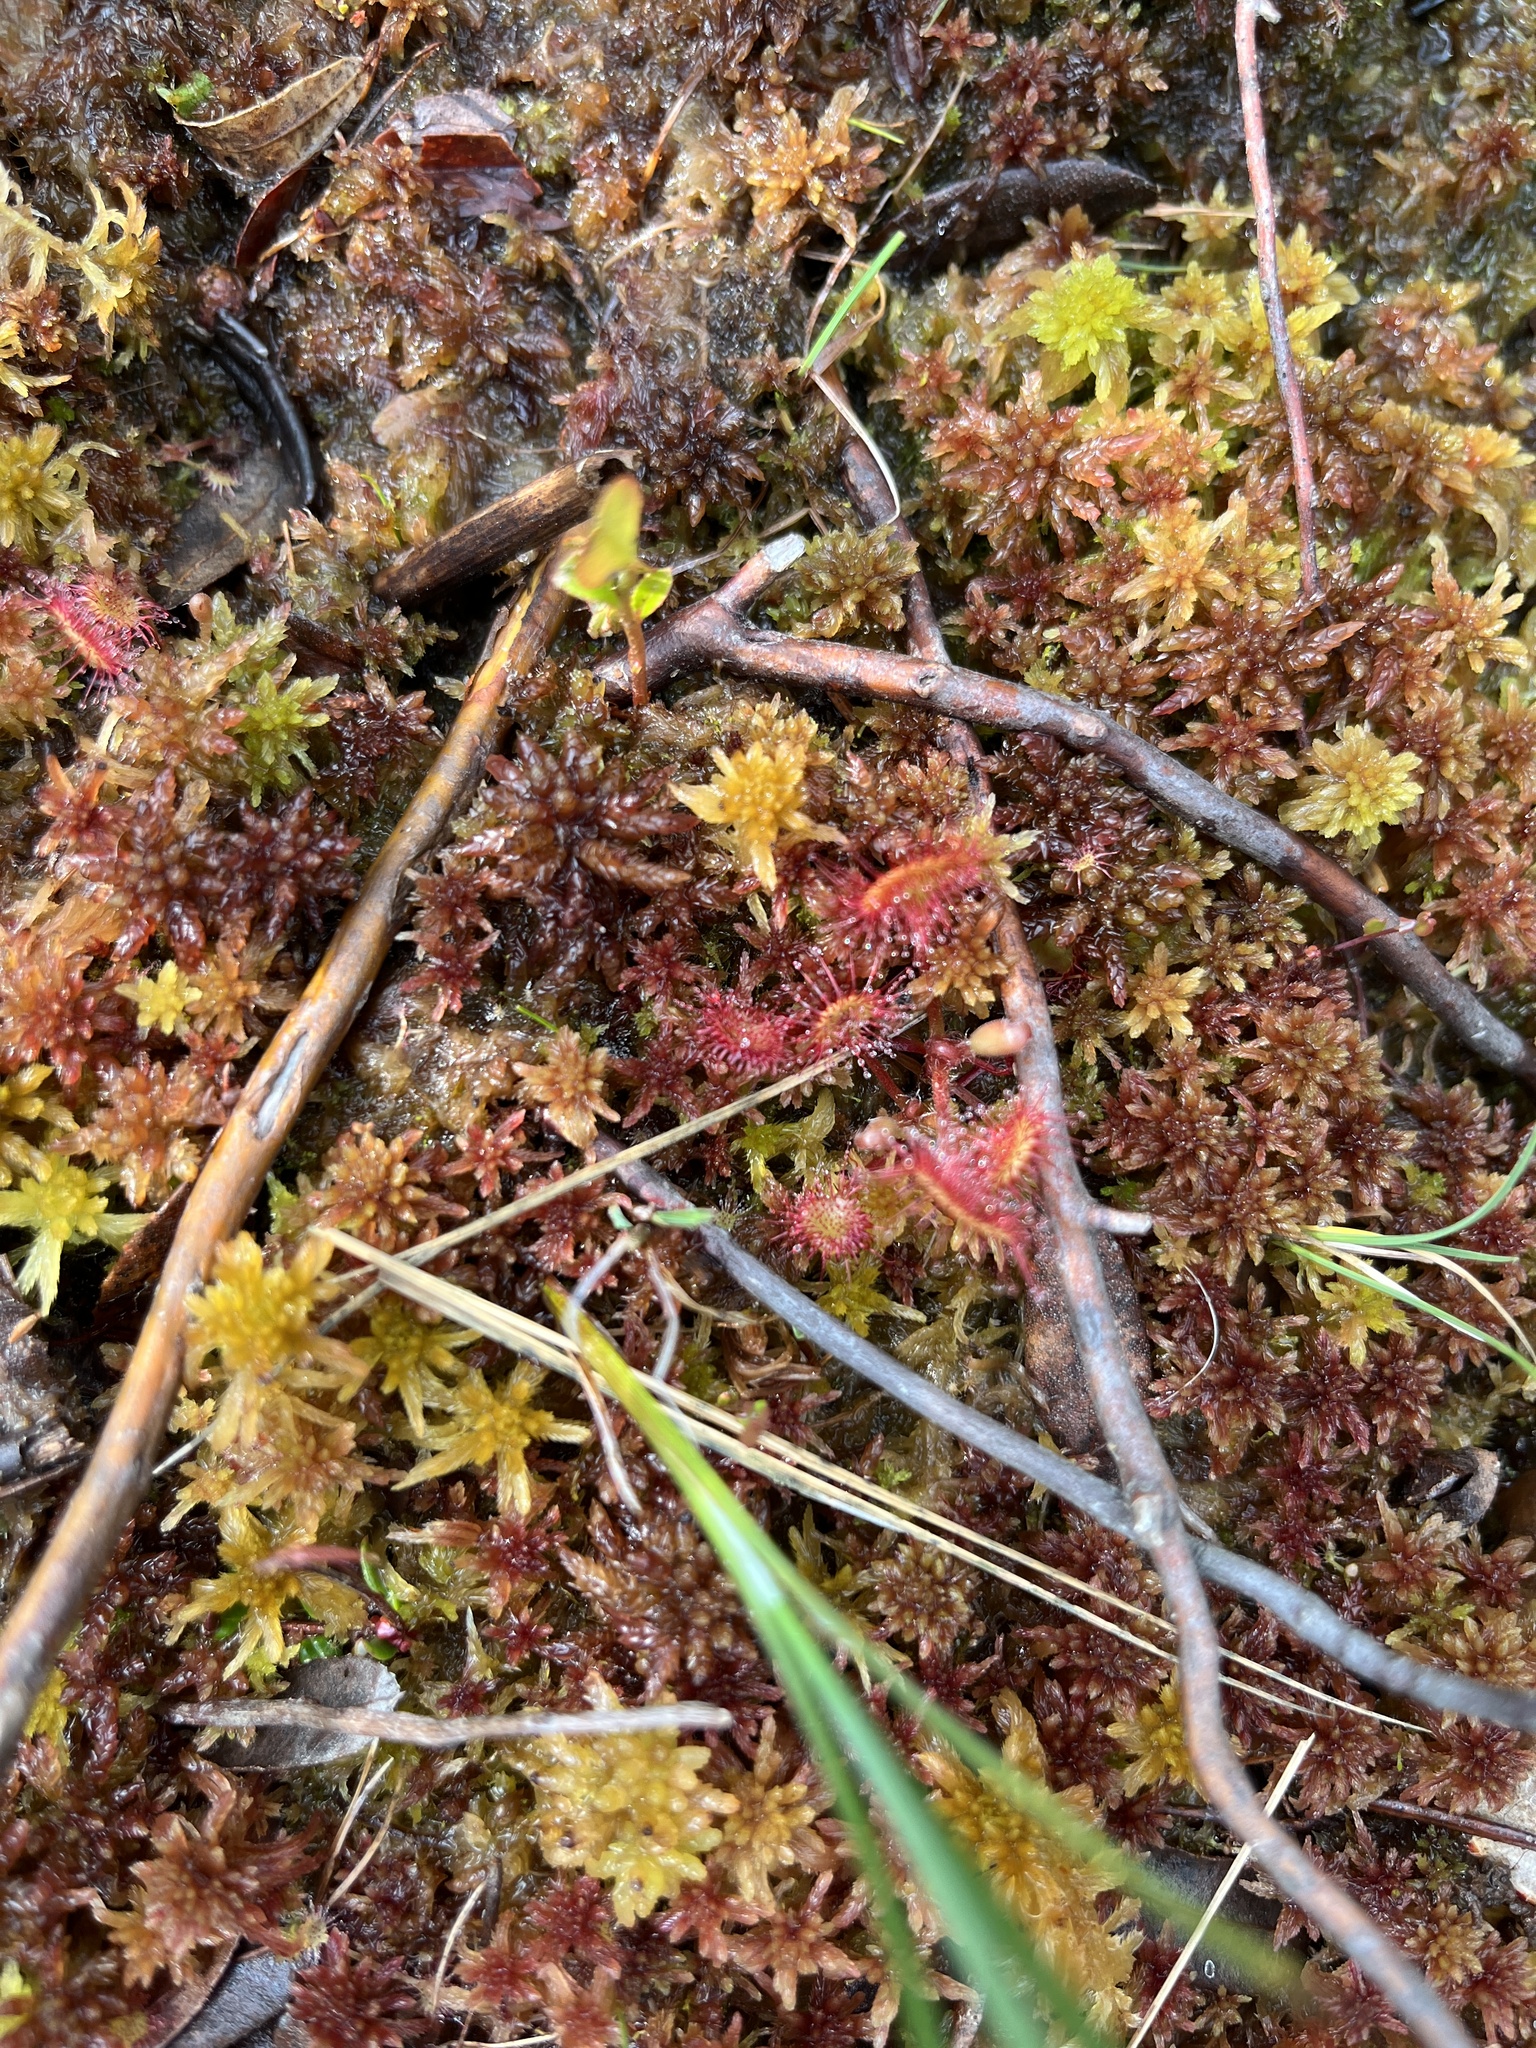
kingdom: Plantae
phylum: Tracheophyta
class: Magnoliopsida
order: Caryophyllales
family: Droseraceae
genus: Drosera
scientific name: Drosera rotundifolia
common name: Round-leaved sundew
